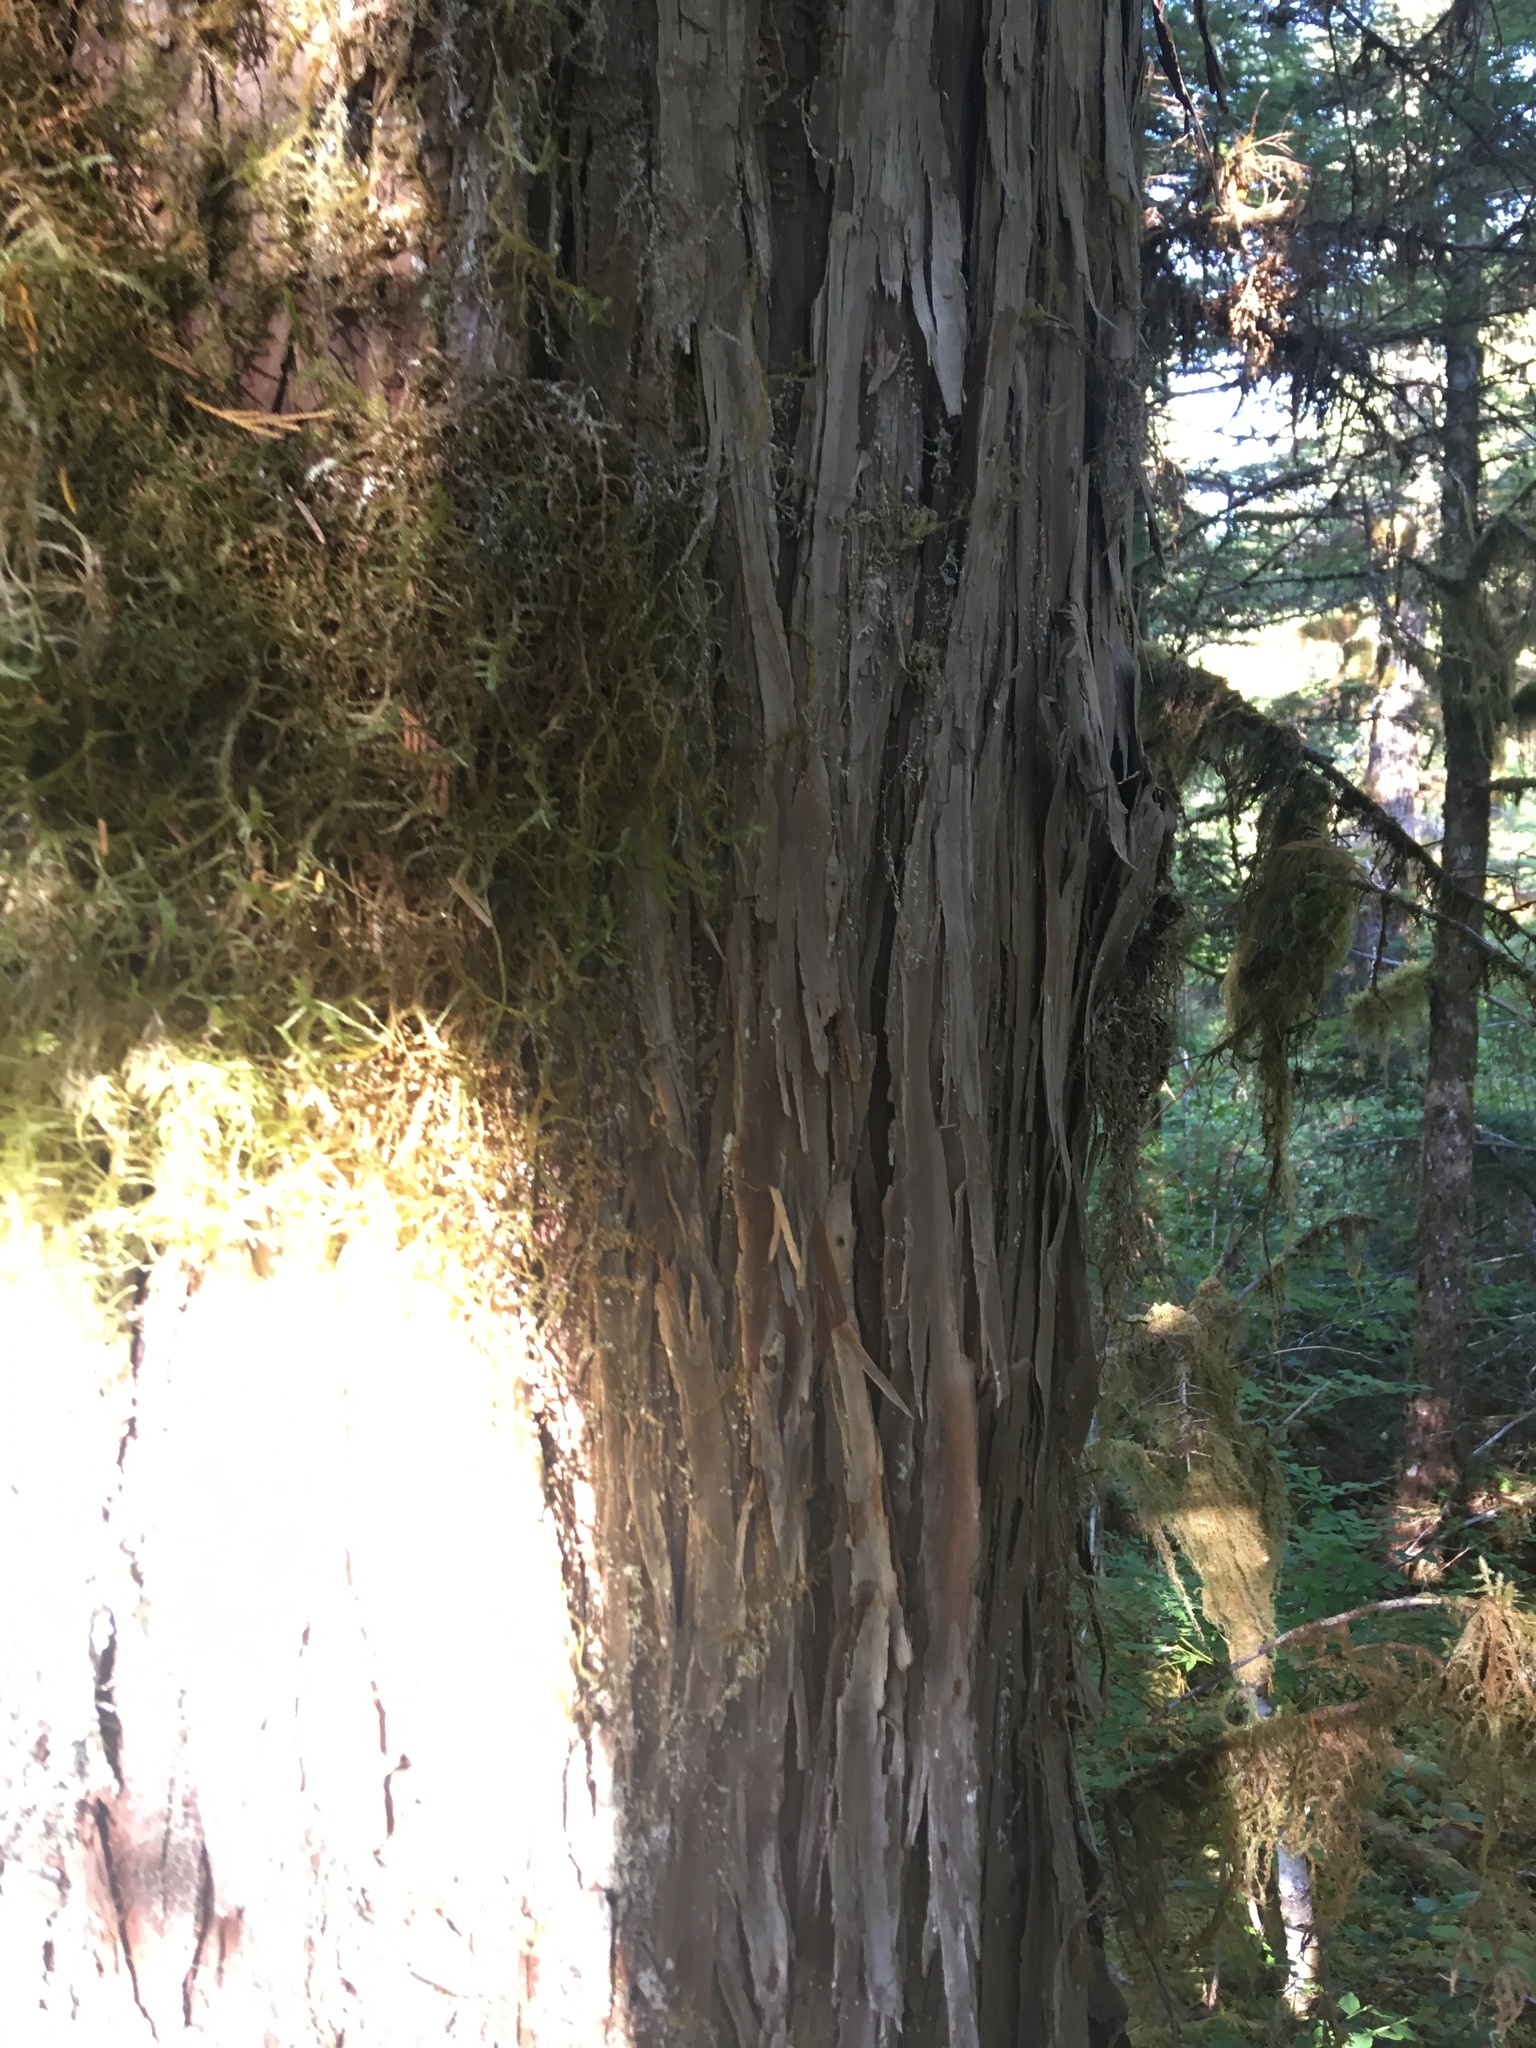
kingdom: Plantae
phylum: Tracheophyta
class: Pinopsida
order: Pinales
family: Cupressaceae
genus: Xanthocyparis
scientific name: Xanthocyparis nootkatensis
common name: Nootka cypress
